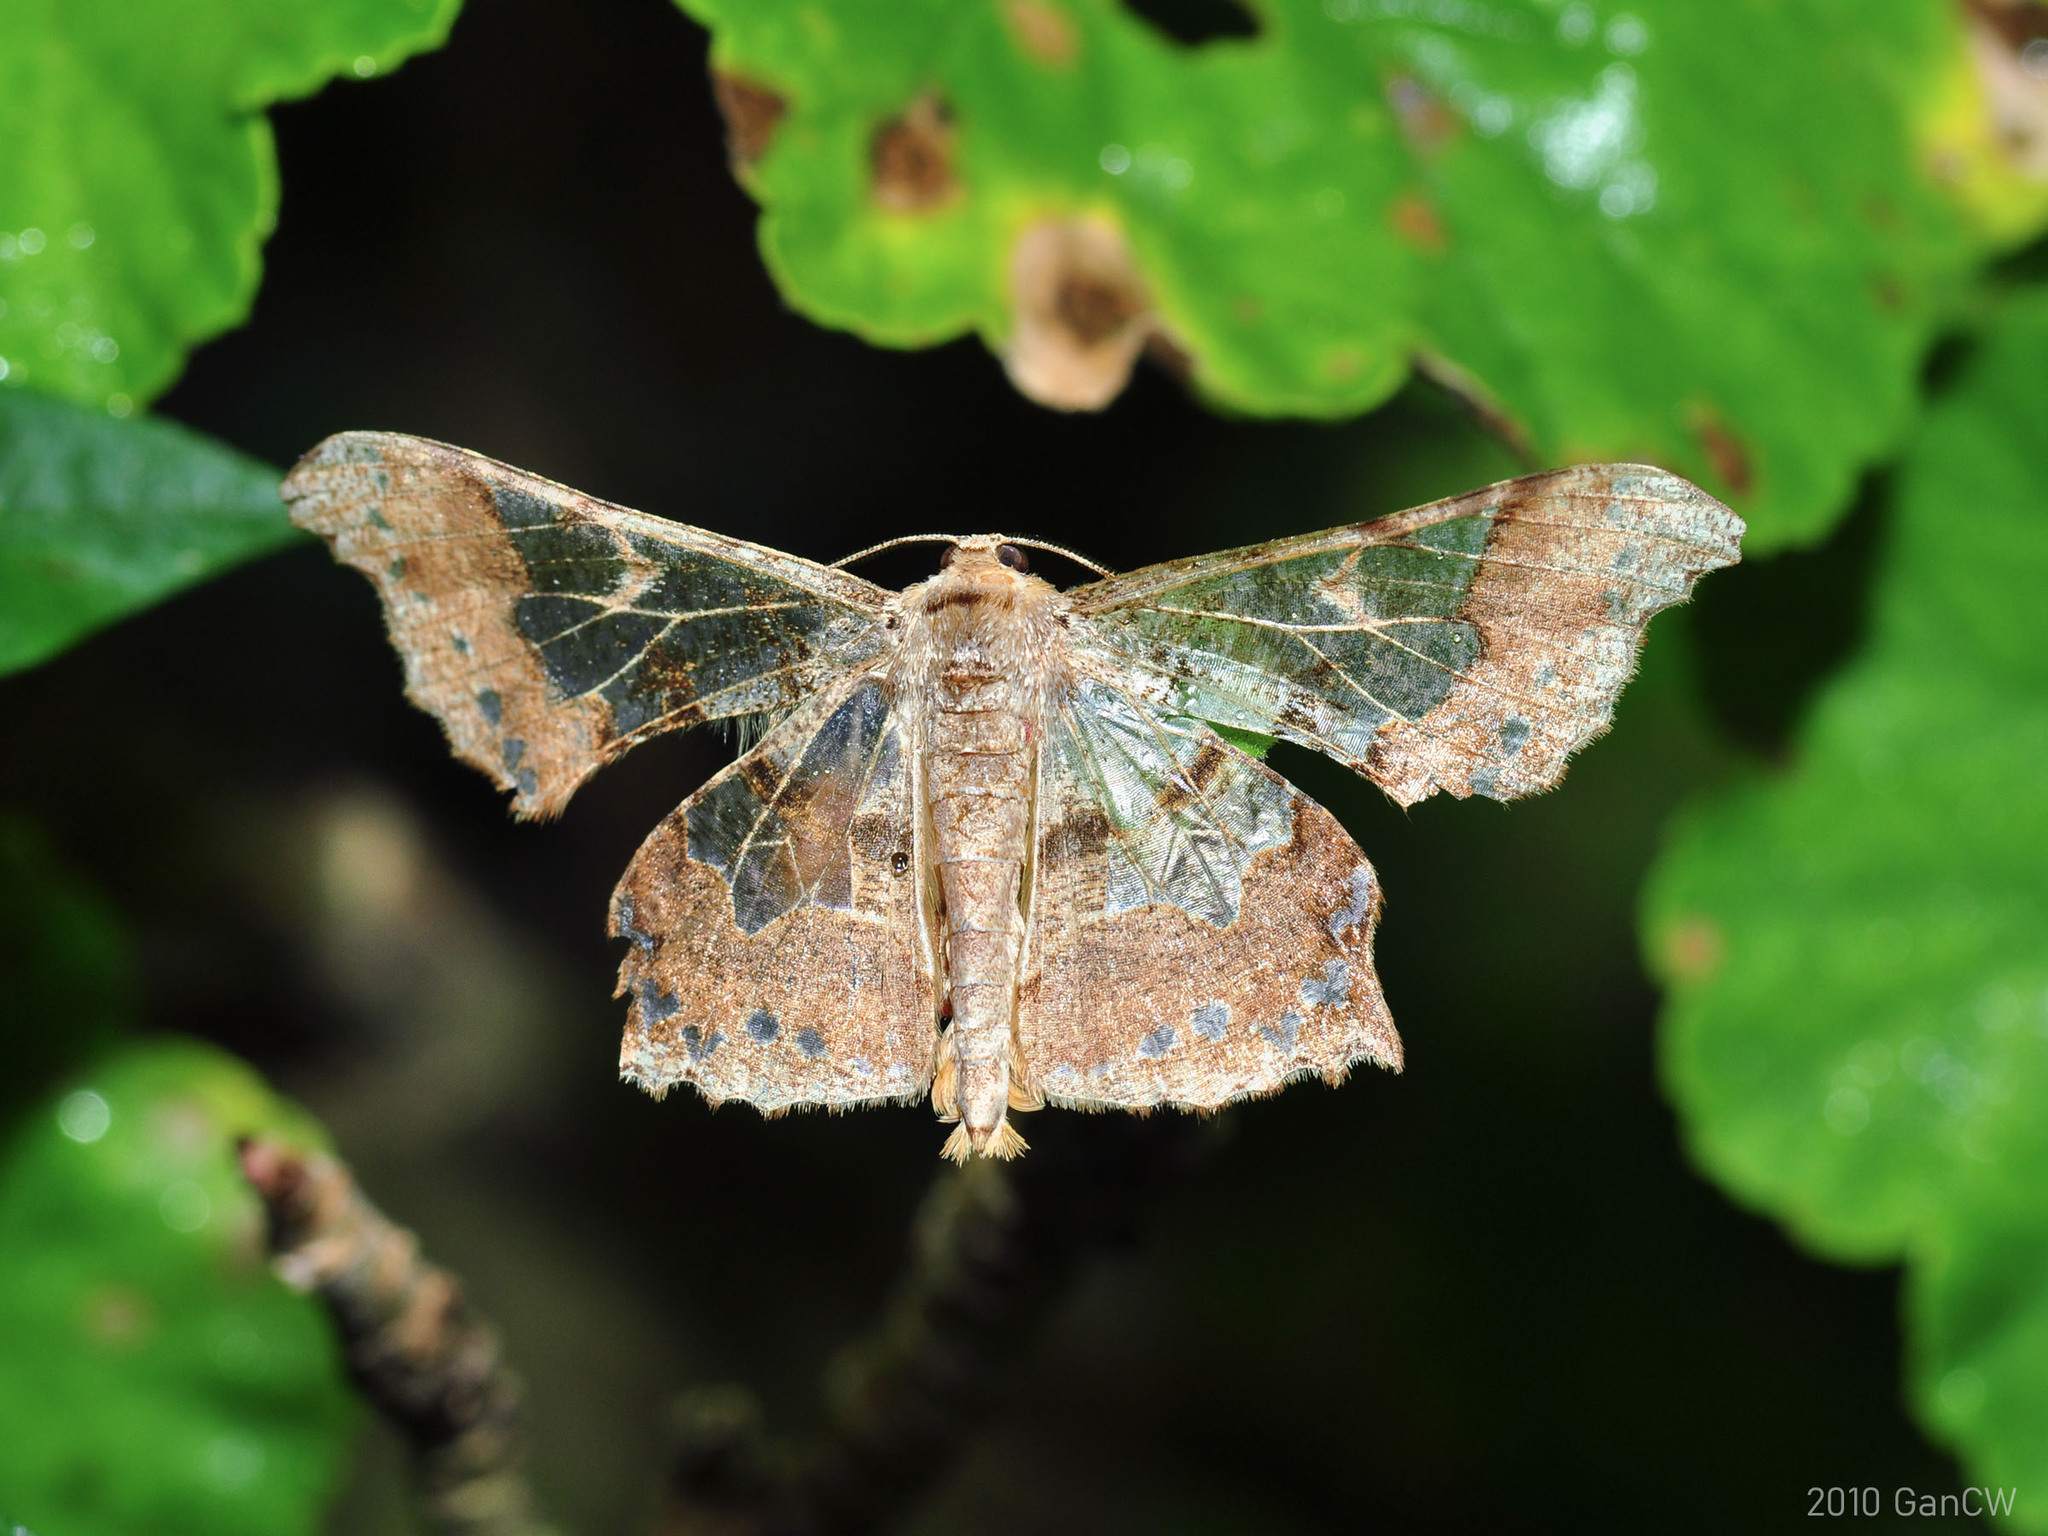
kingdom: Animalia
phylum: Arthropoda
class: Insecta
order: Lepidoptera
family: Geometridae
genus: Krananda
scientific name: Krananda semihyalina
